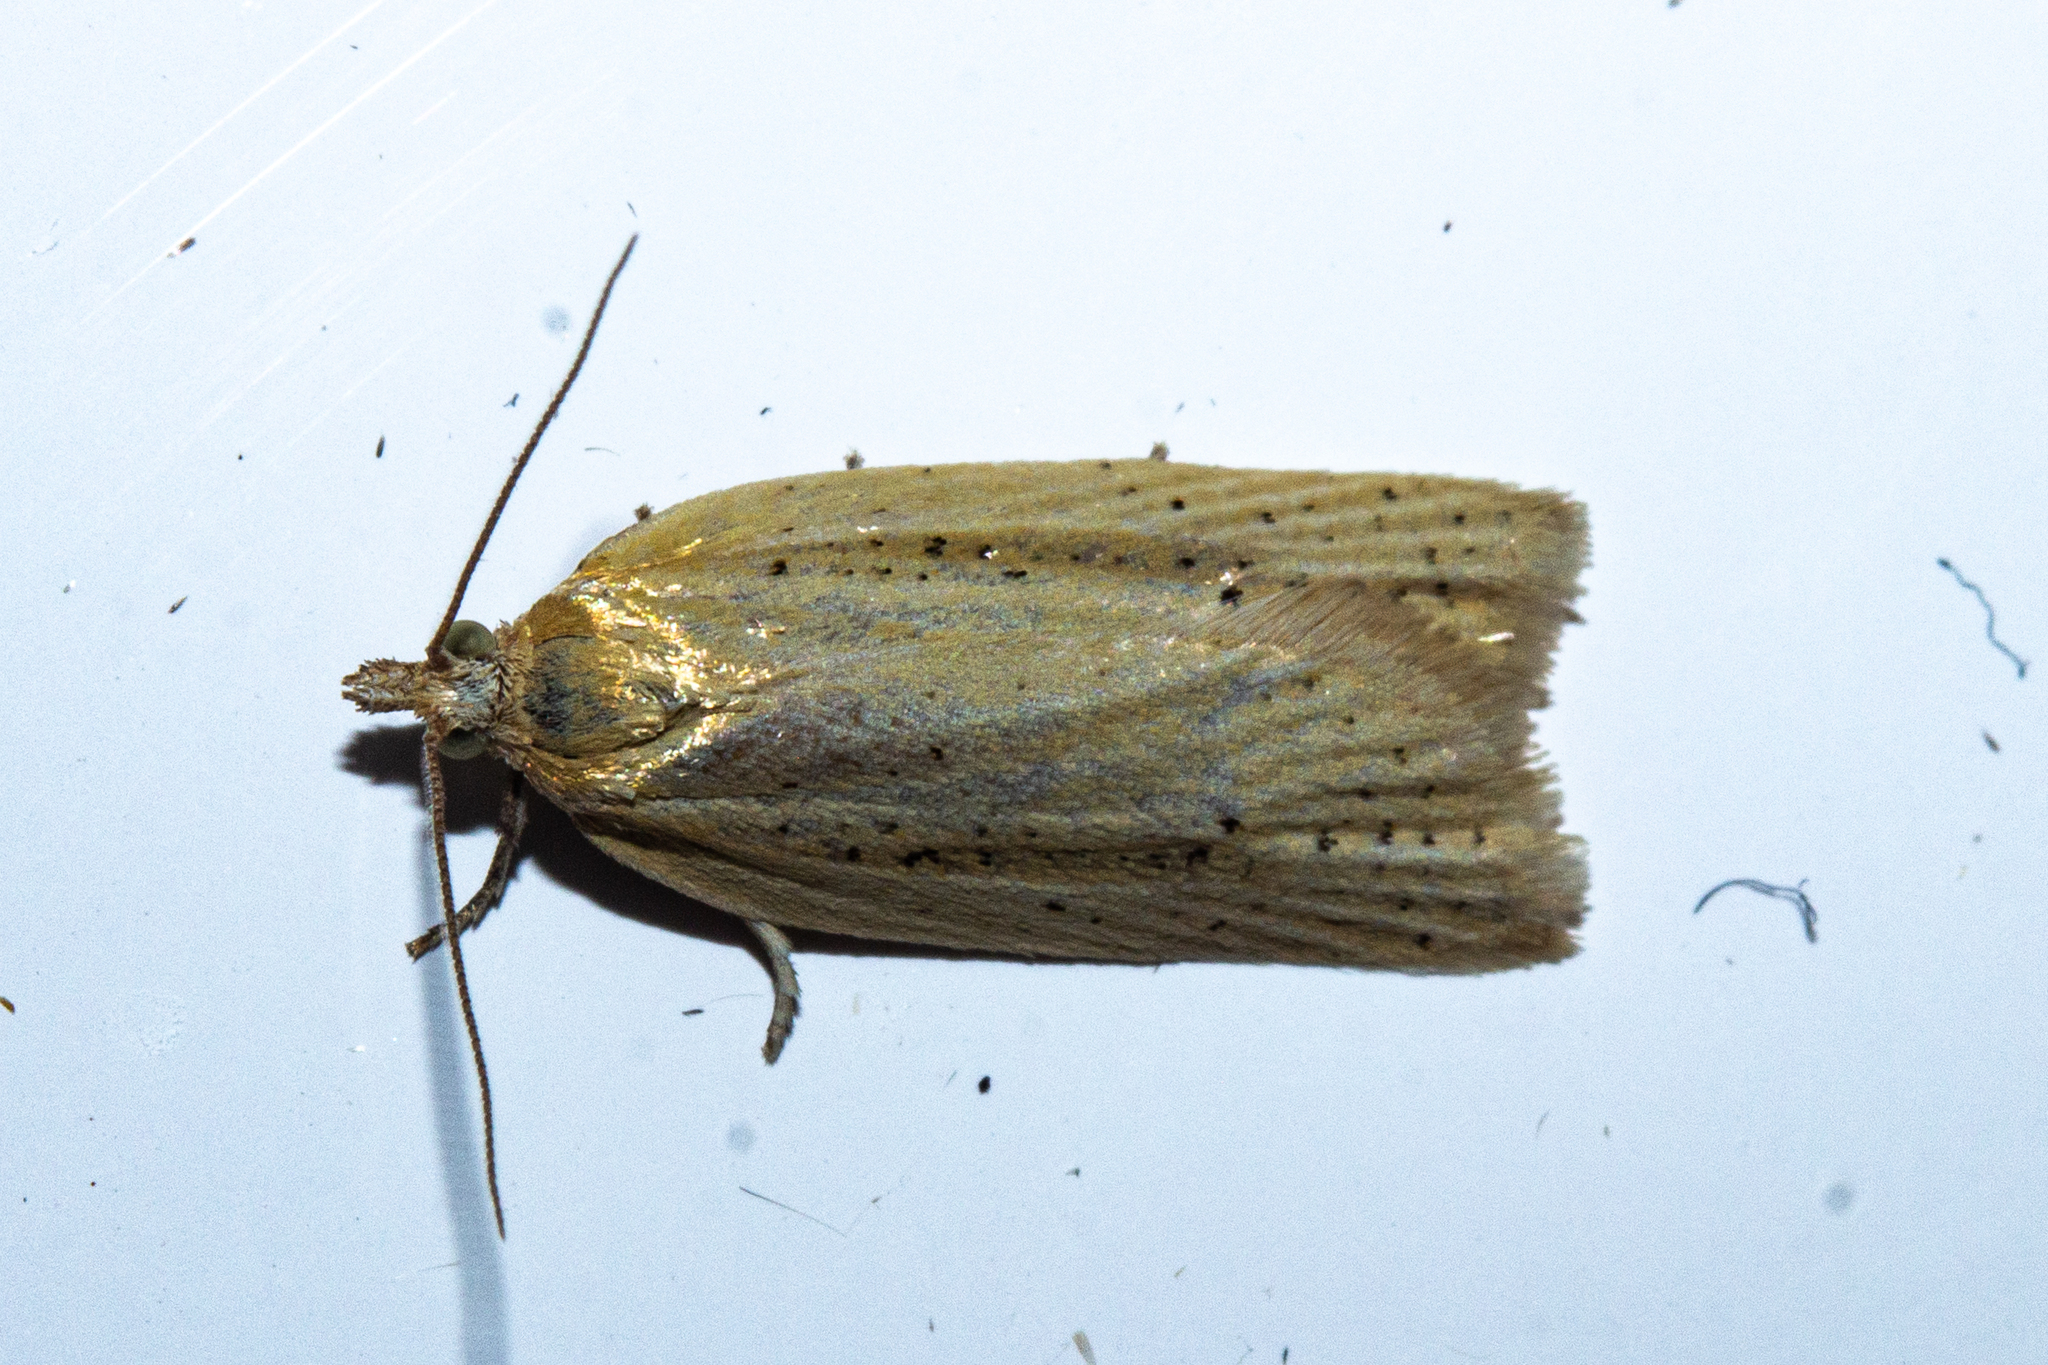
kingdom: Animalia
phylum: Arthropoda
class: Insecta
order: Lepidoptera
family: Tortricidae
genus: Clepsis
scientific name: Clepsis
